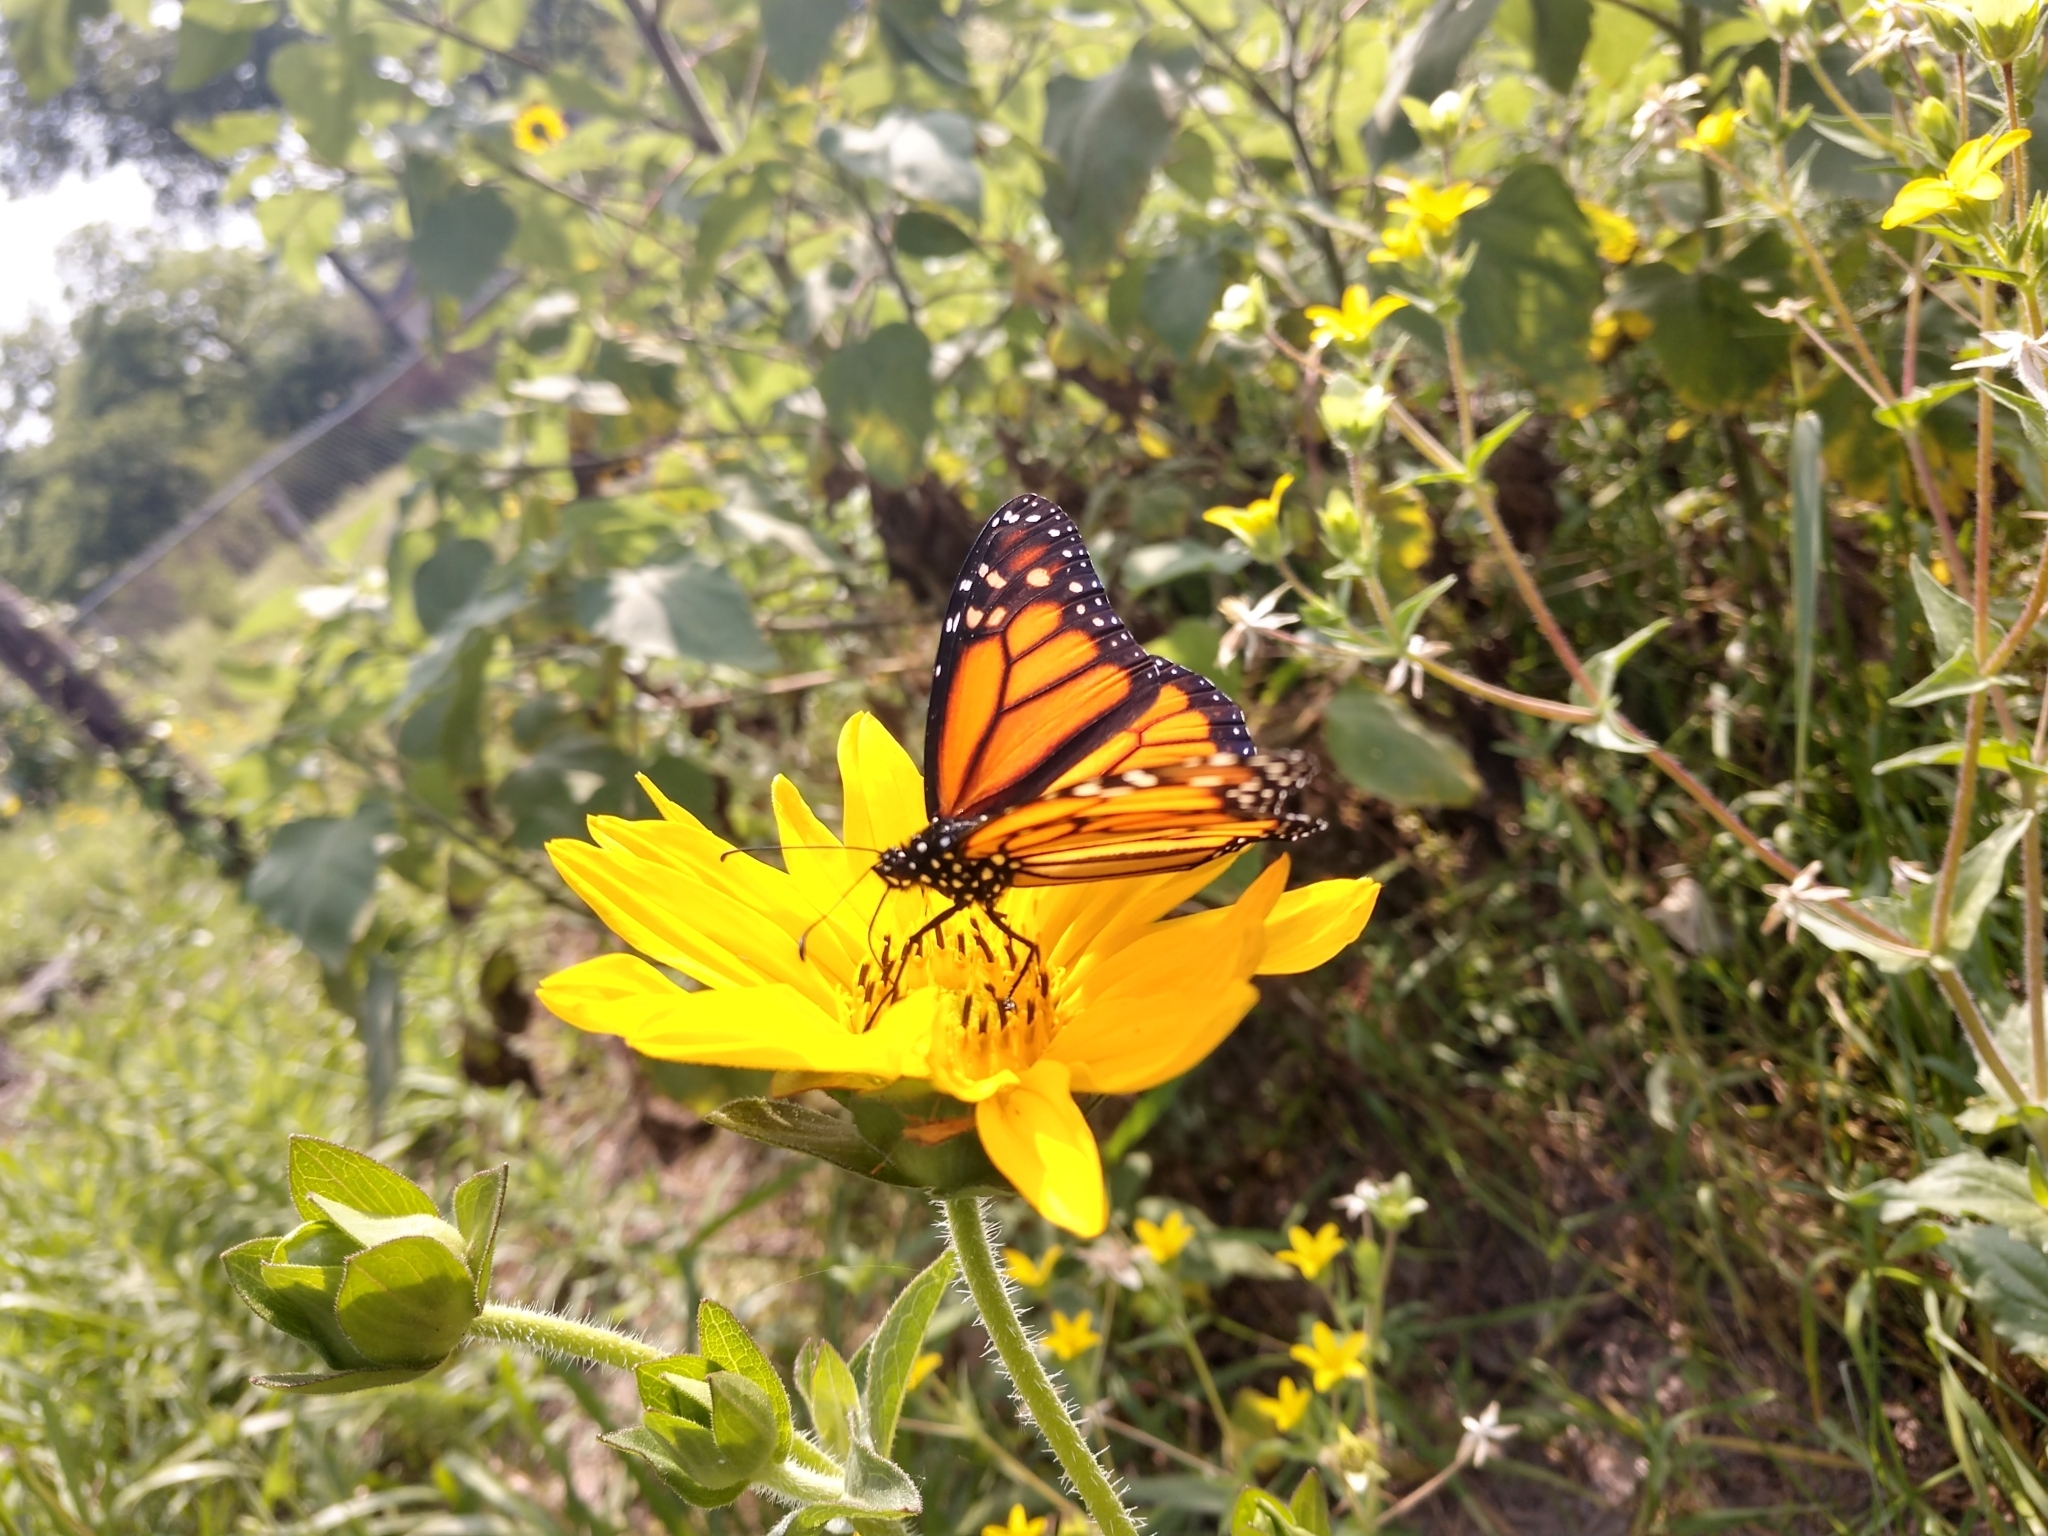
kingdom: Animalia
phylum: Arthropoda
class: Insecta
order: Lepidoptera
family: Nymphalidae
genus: Danaus
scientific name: Danaus plexippus
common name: Monarch
